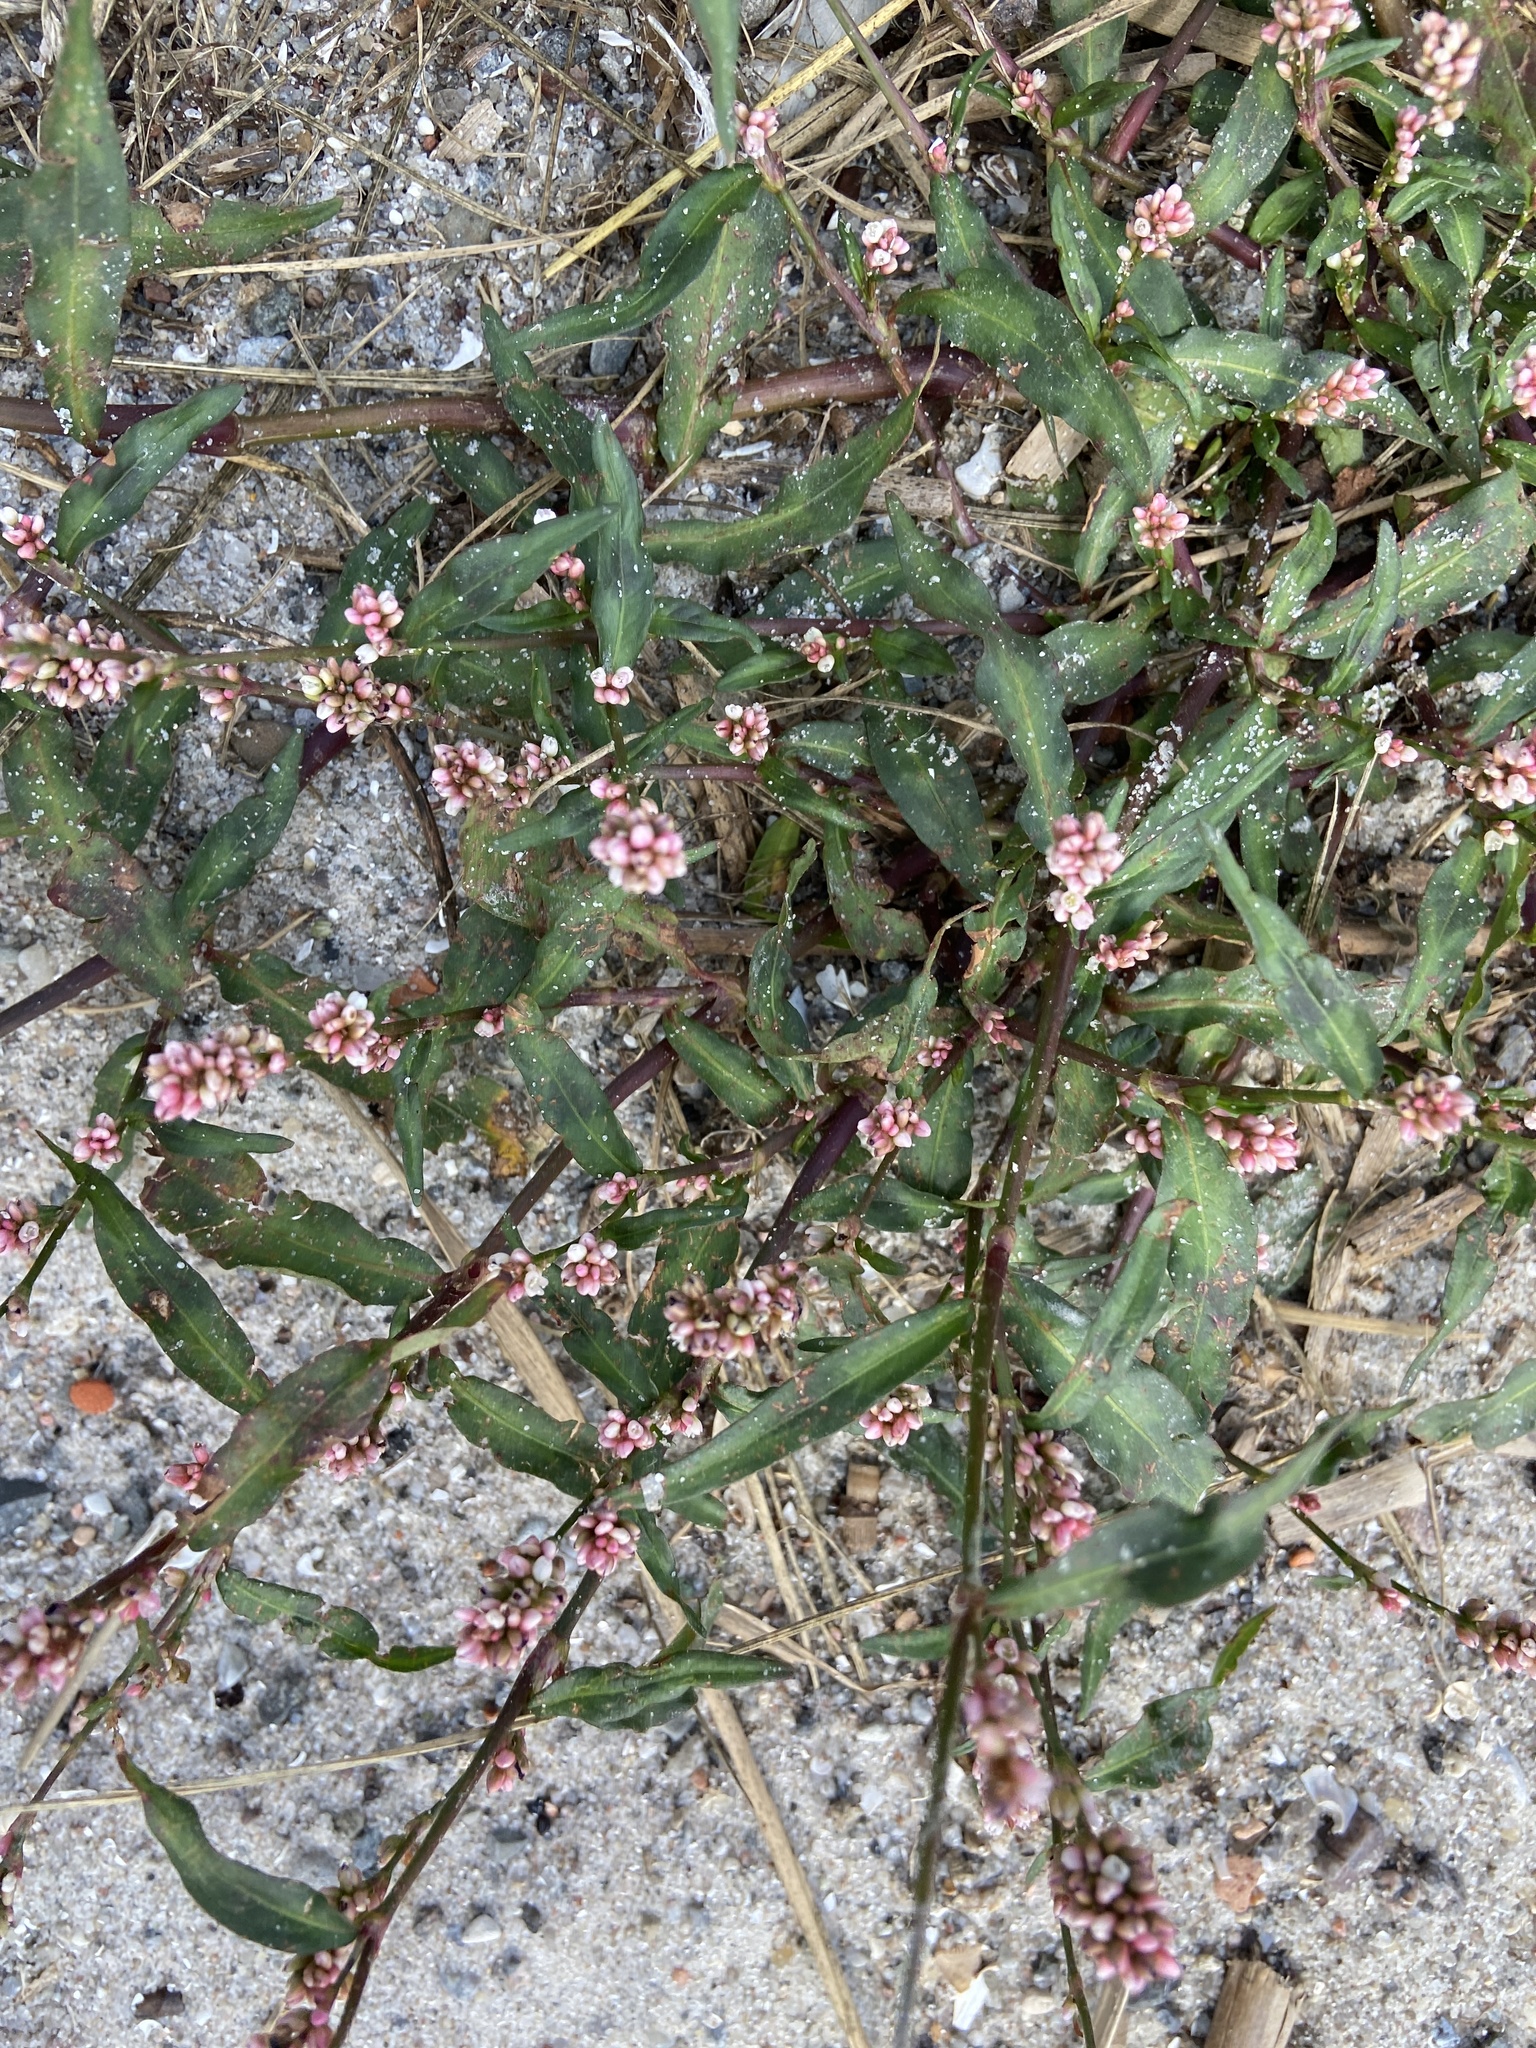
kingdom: Plantae
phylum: Tracheophyta
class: Magnoliopsida
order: Caryophyllales
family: Polygonaceae
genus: Persicaria
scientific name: Persicaria maculosa
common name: Redshank
